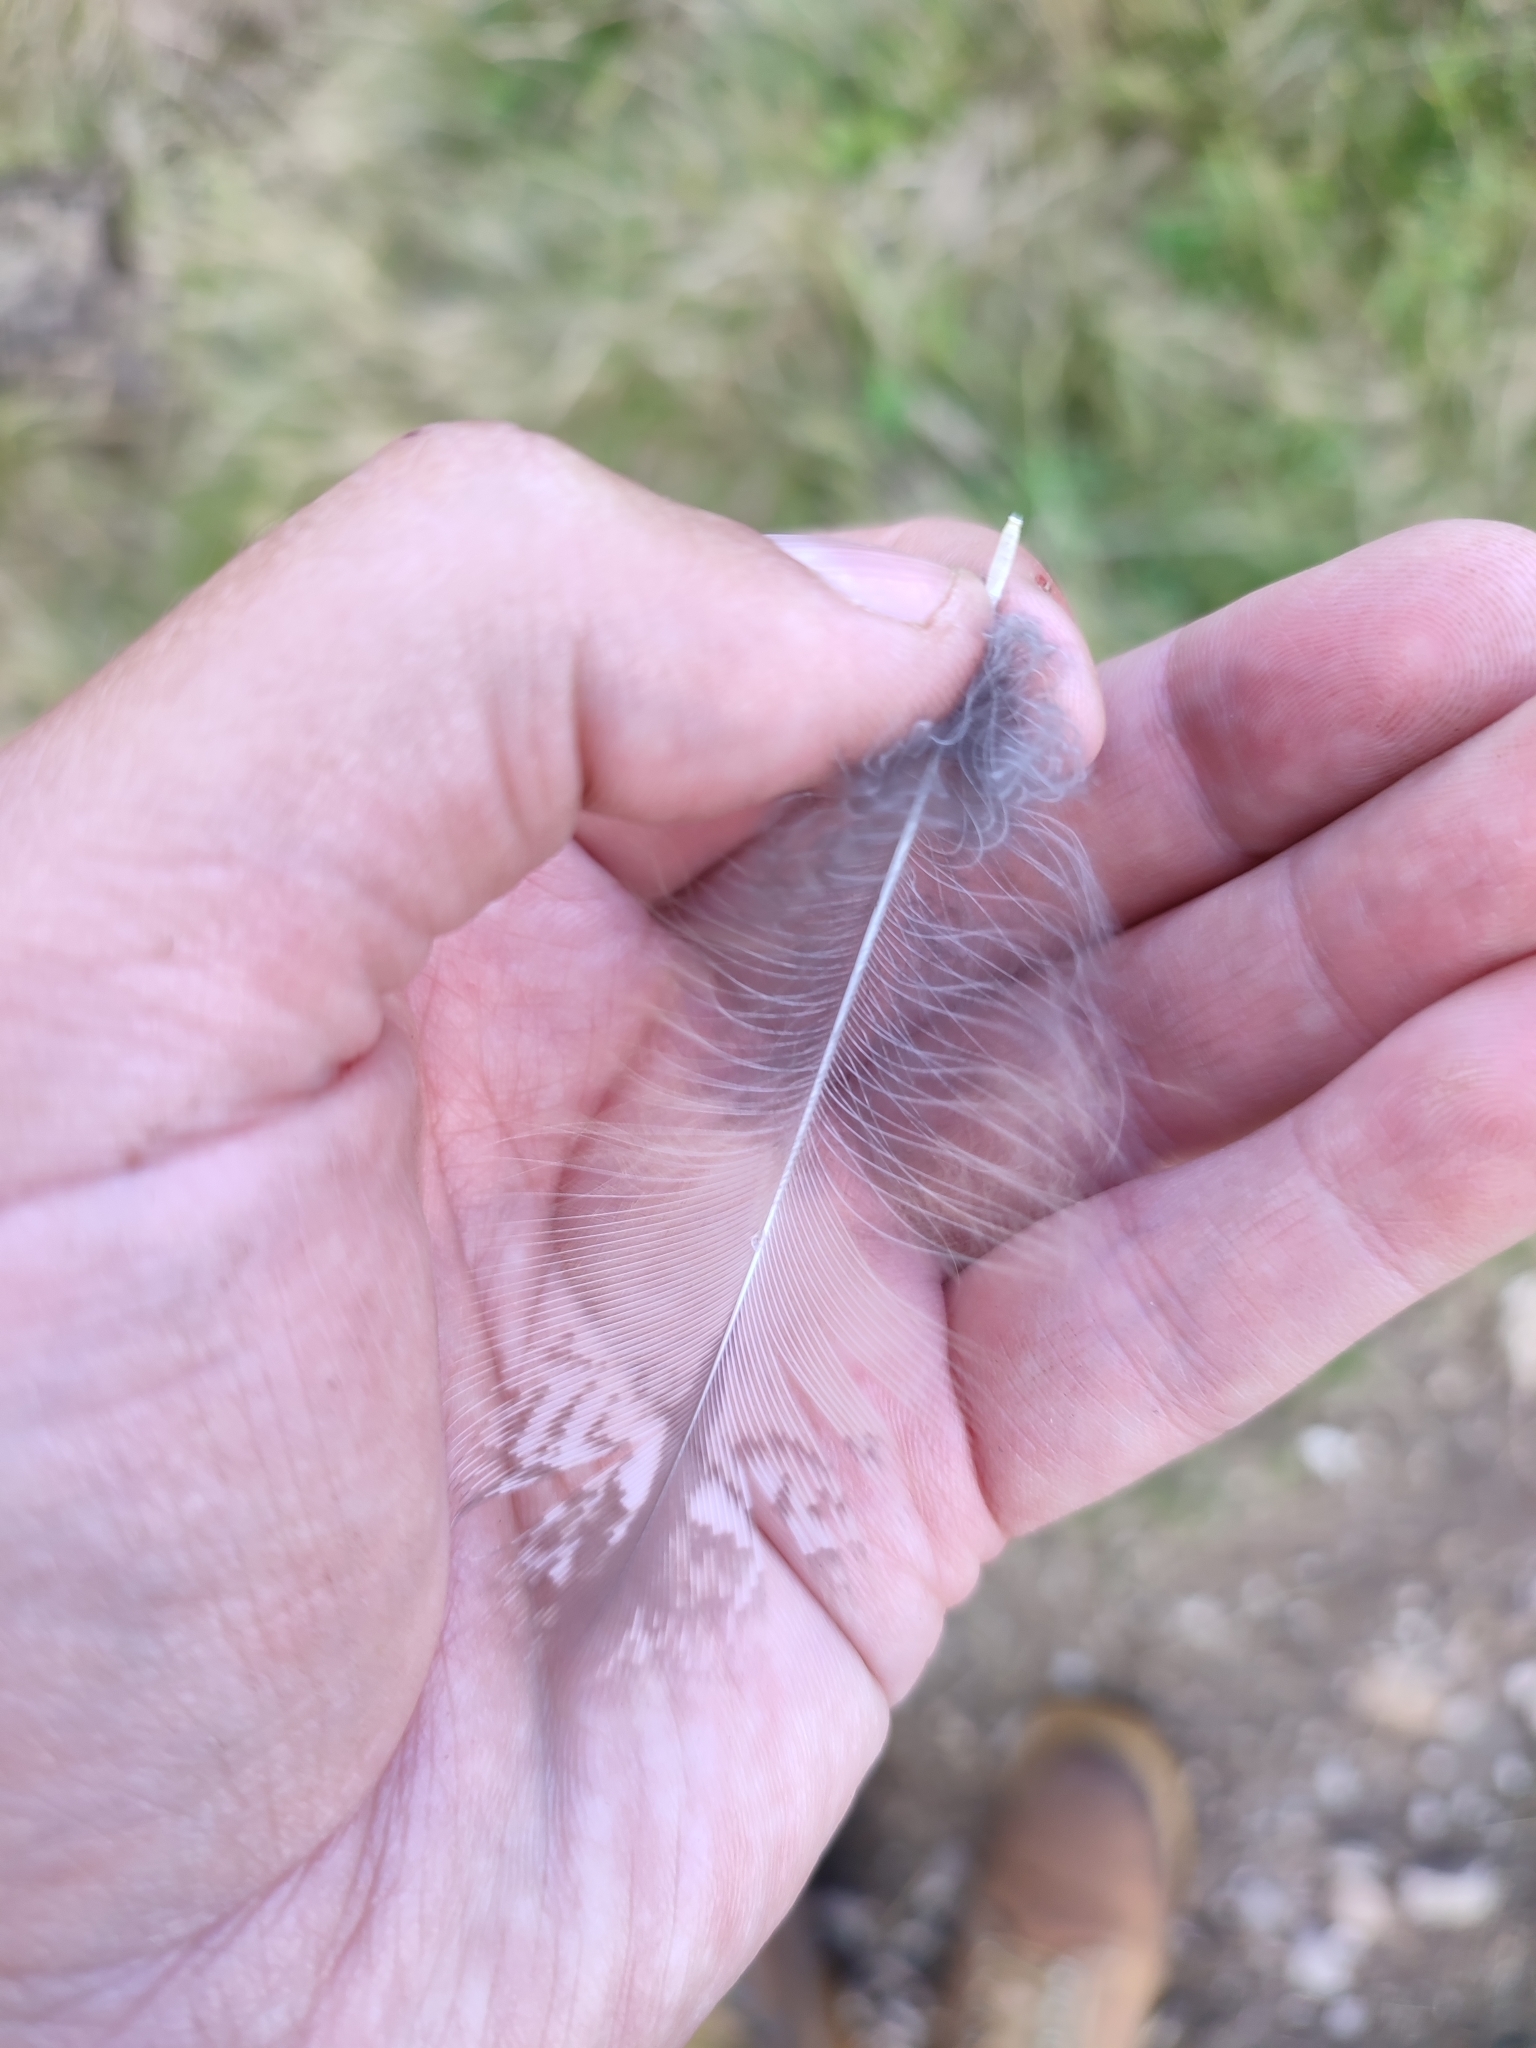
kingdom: Animalia
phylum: Chordata
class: Aves
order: Strigiformes
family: Strigidae
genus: Asio
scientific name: Asio otus
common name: Long-eared owl
